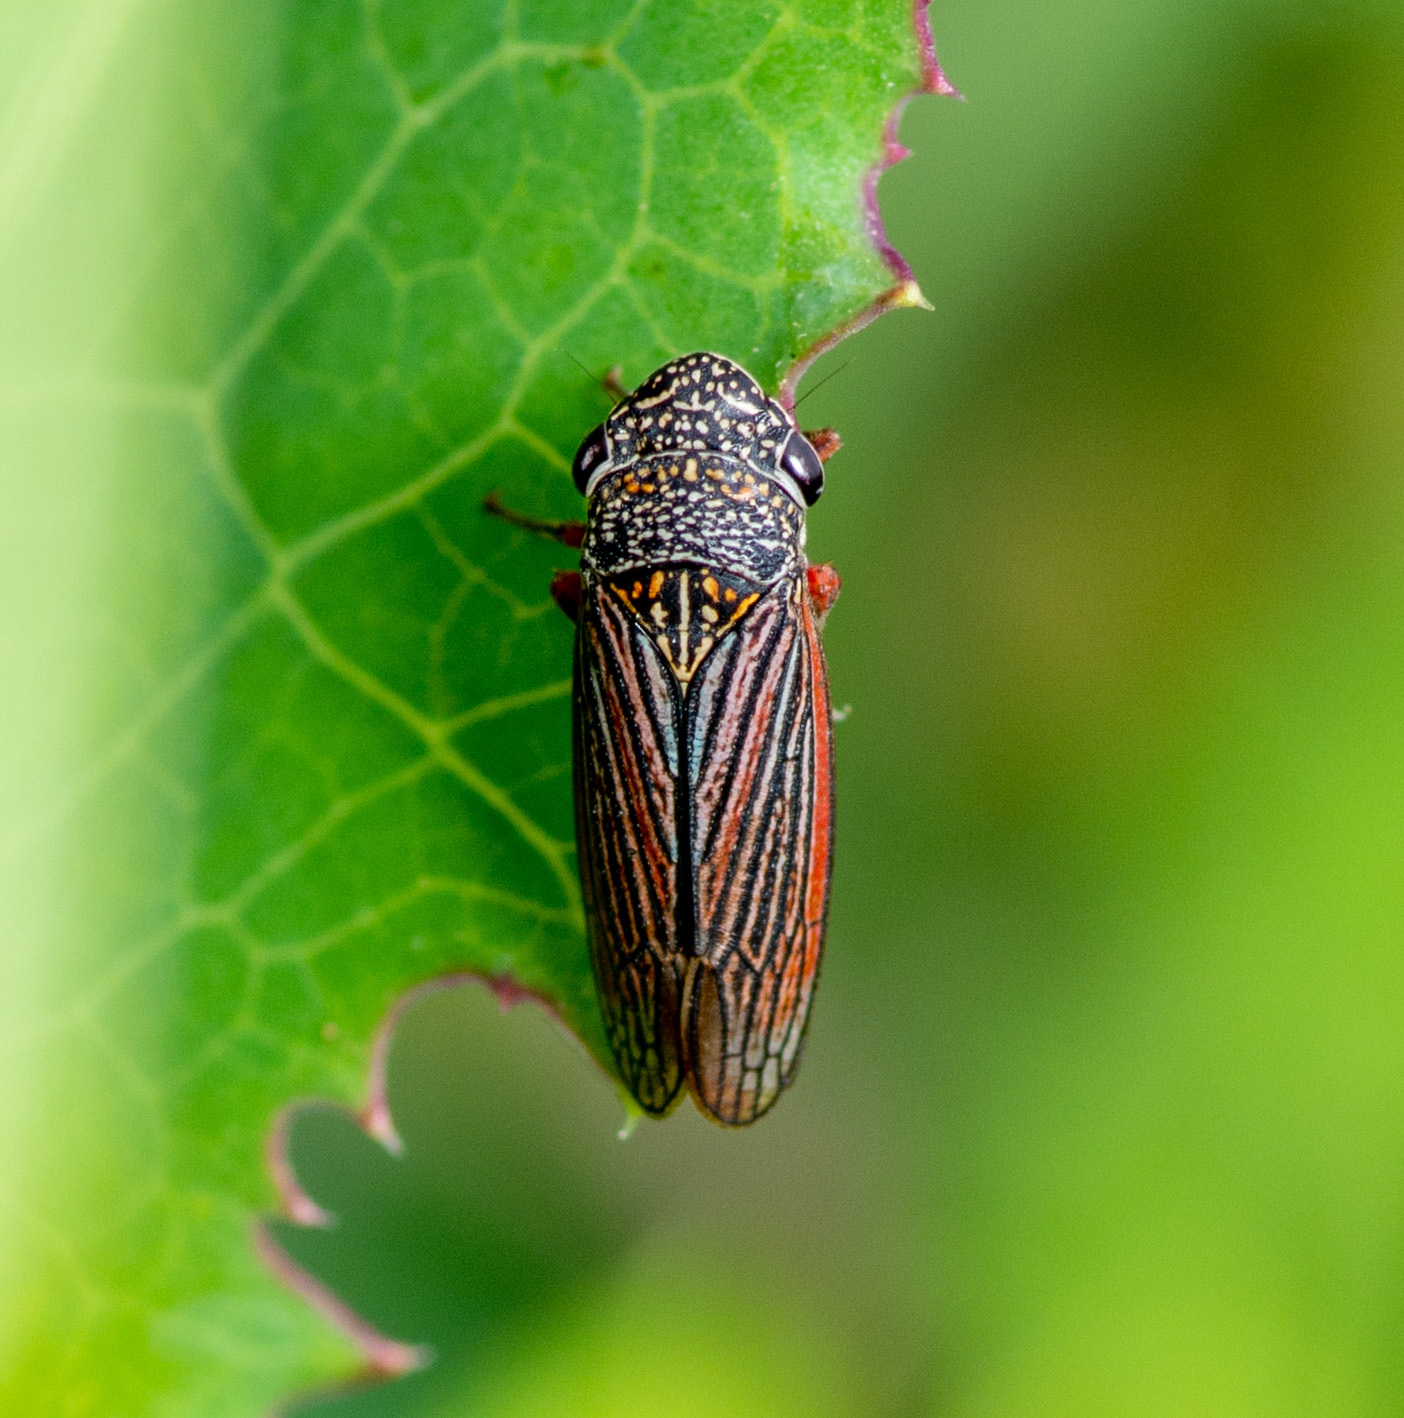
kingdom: Animalia
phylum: Arthropoda
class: Insecta
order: Hemiptera
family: Cicadellidae
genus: Cuerna
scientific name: Cuerna costalis
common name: Lateral-lined sharpshooter
